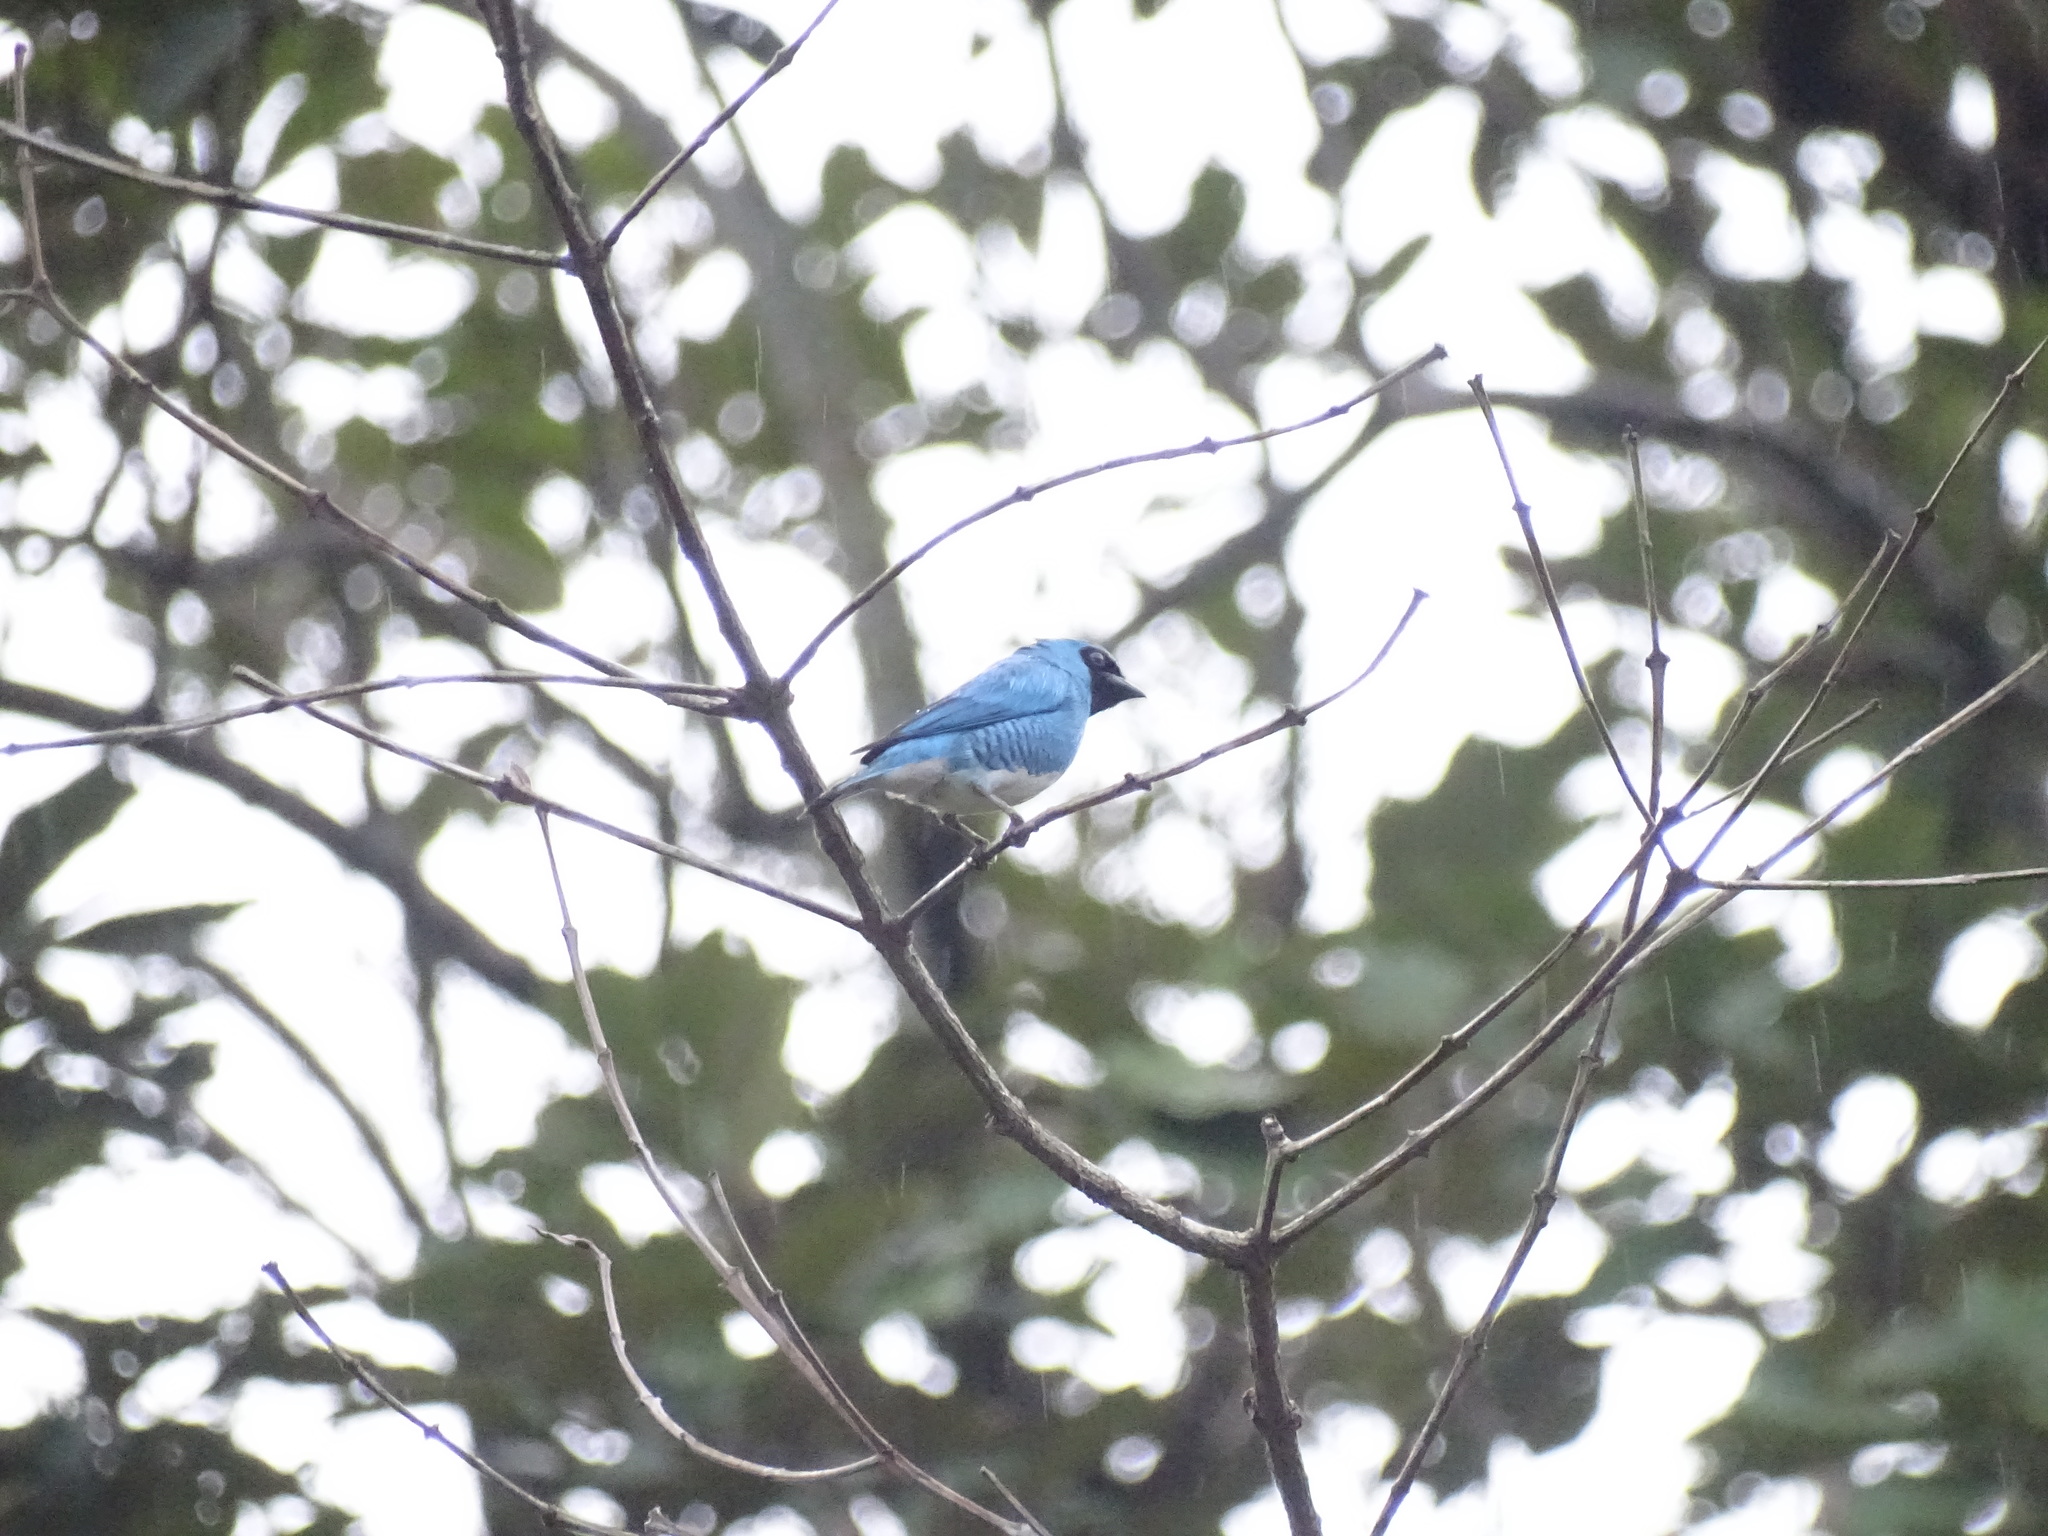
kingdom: Animalia
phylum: Chordata
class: Aves
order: Passeriformes
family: Thraupidae
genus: Tersina
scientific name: Tersina viridis
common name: Swallow tanager
